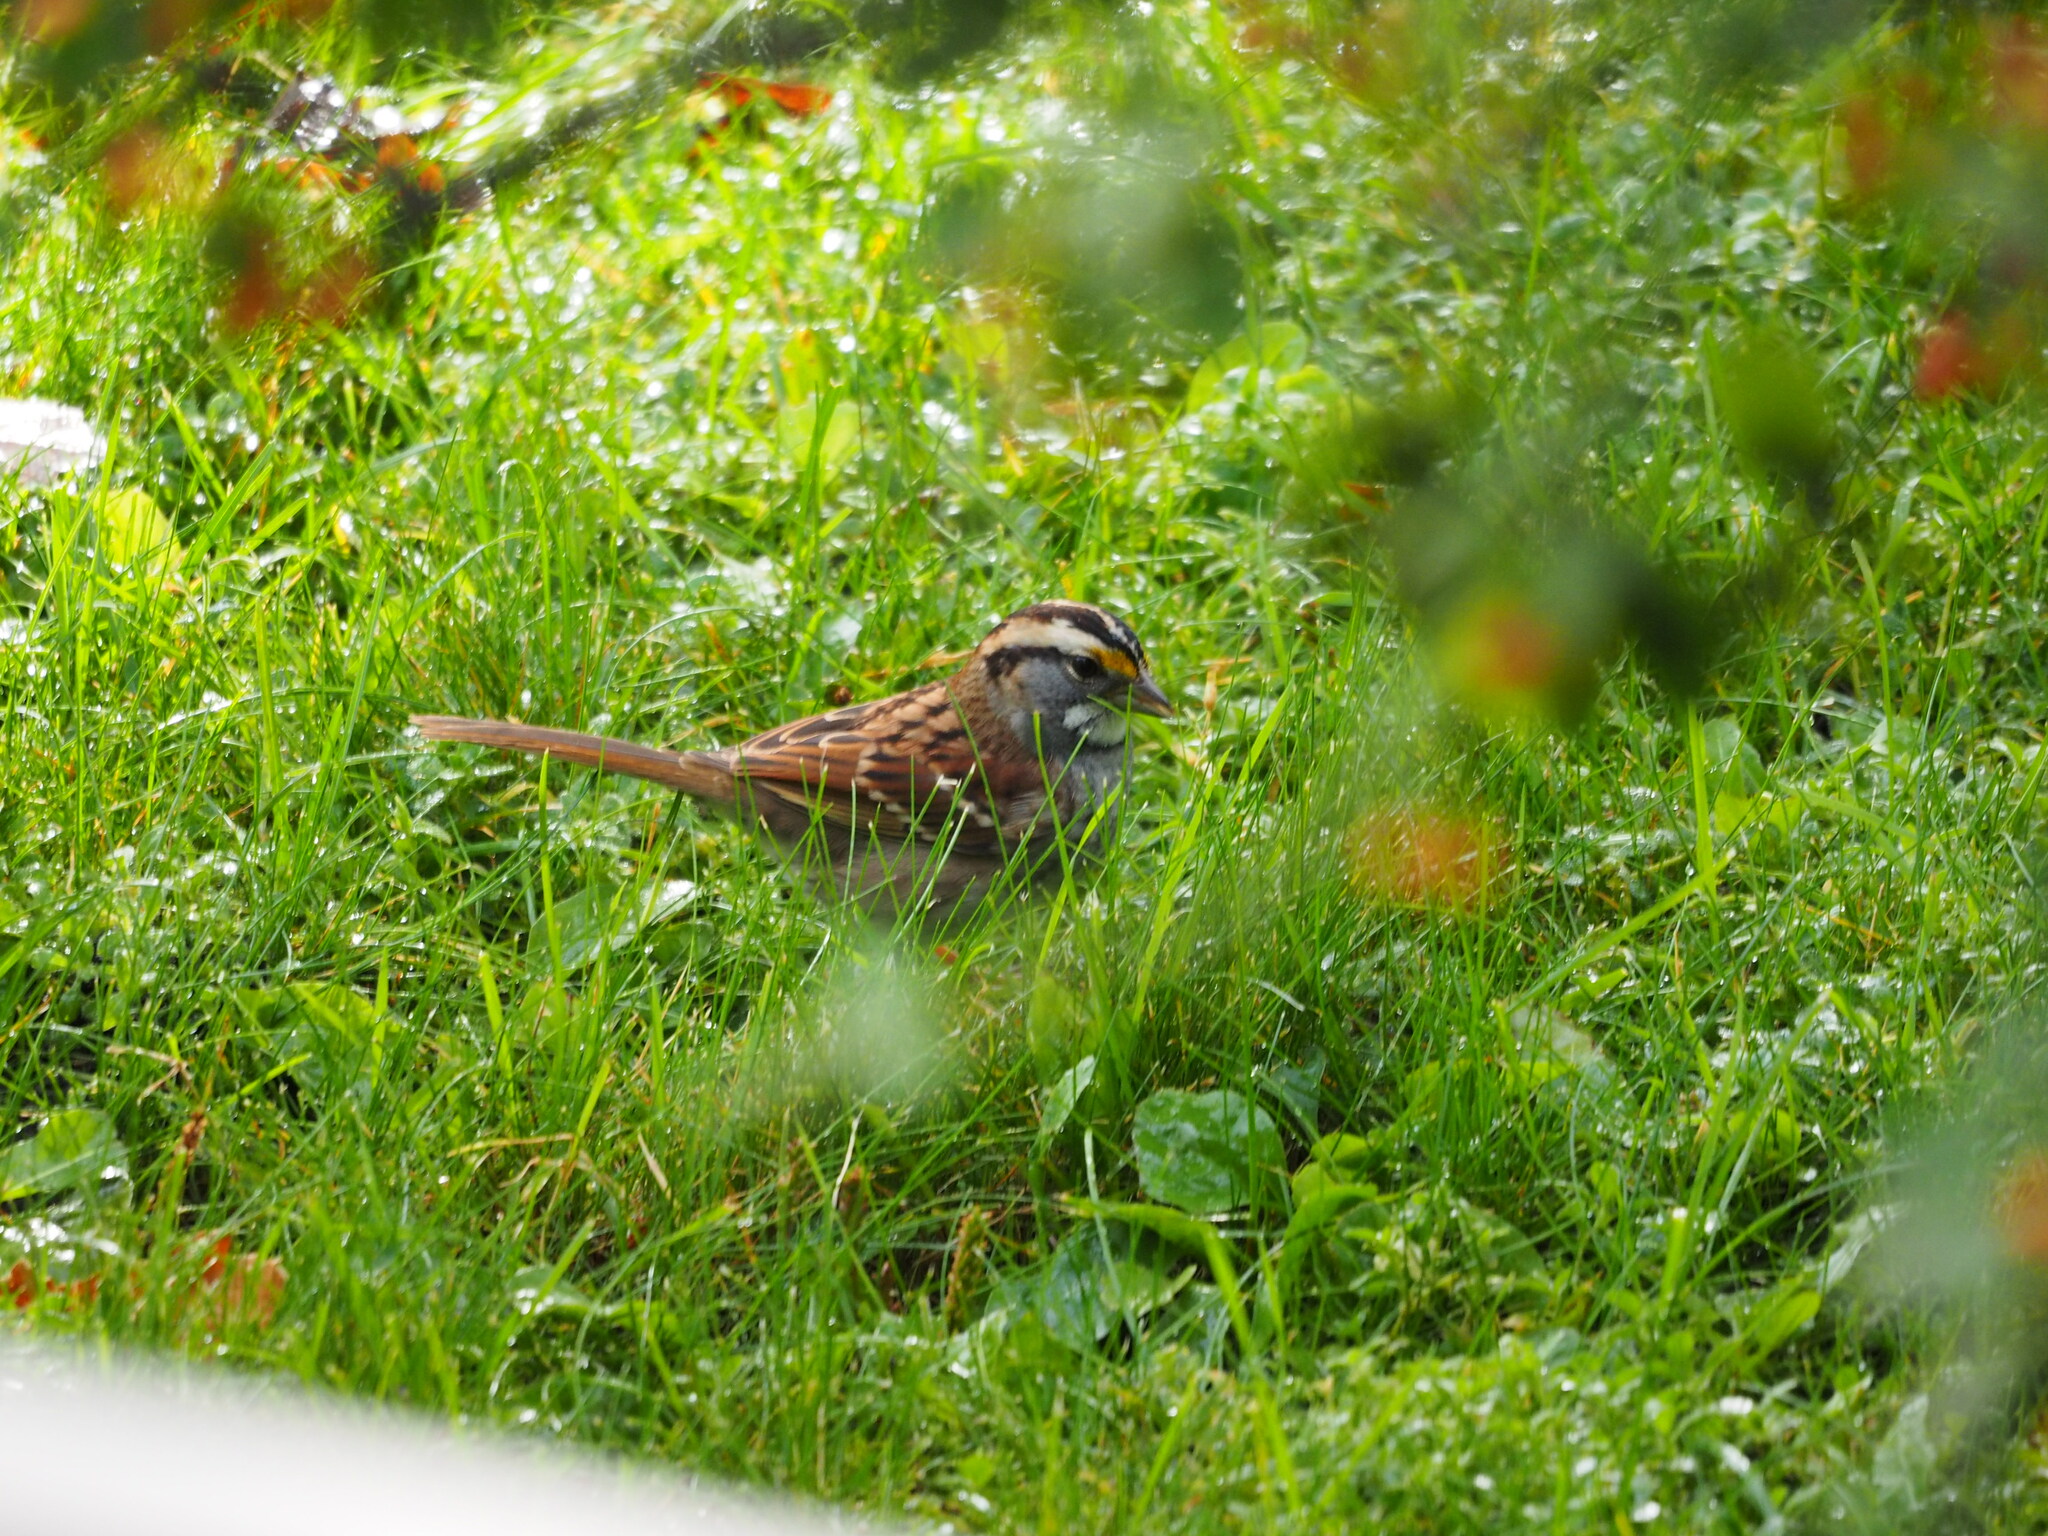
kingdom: Animalia
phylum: Chordata
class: Aves
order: Passeriformes
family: Passerellidae
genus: Zonotrichia
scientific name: Zonotrichia albicollis
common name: White-throated sparrow
